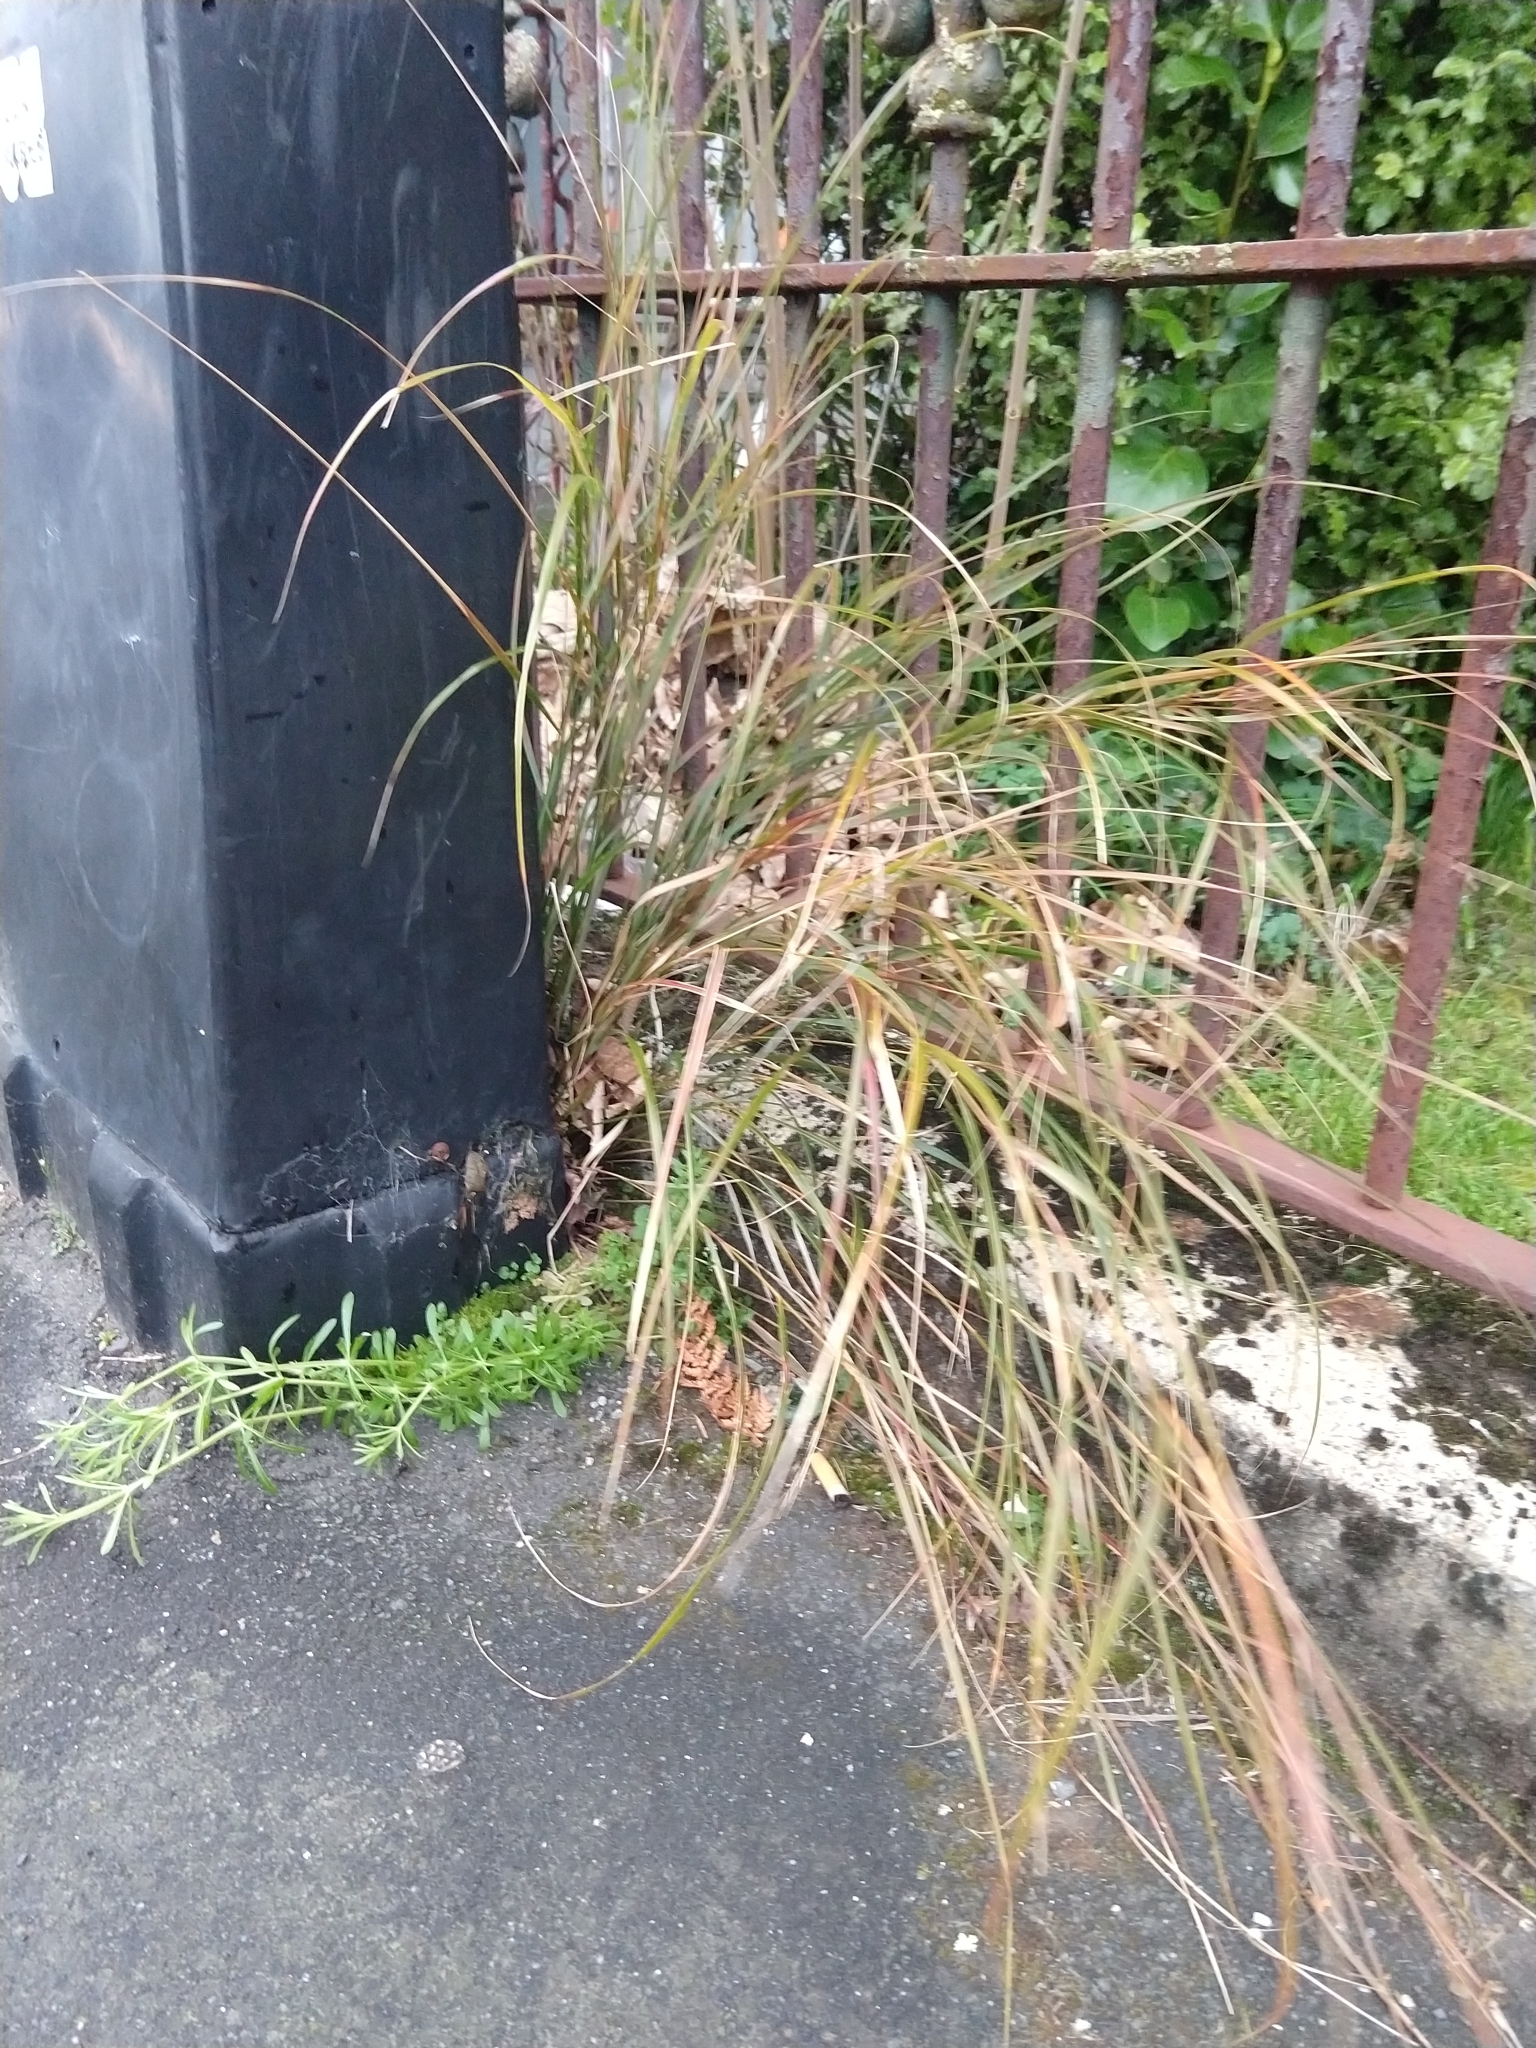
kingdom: Plantae
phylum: Tracheophyta
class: Liliopsida
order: Poales
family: Poaceae
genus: Anemanthele
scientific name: Anemanthele lessoniana
